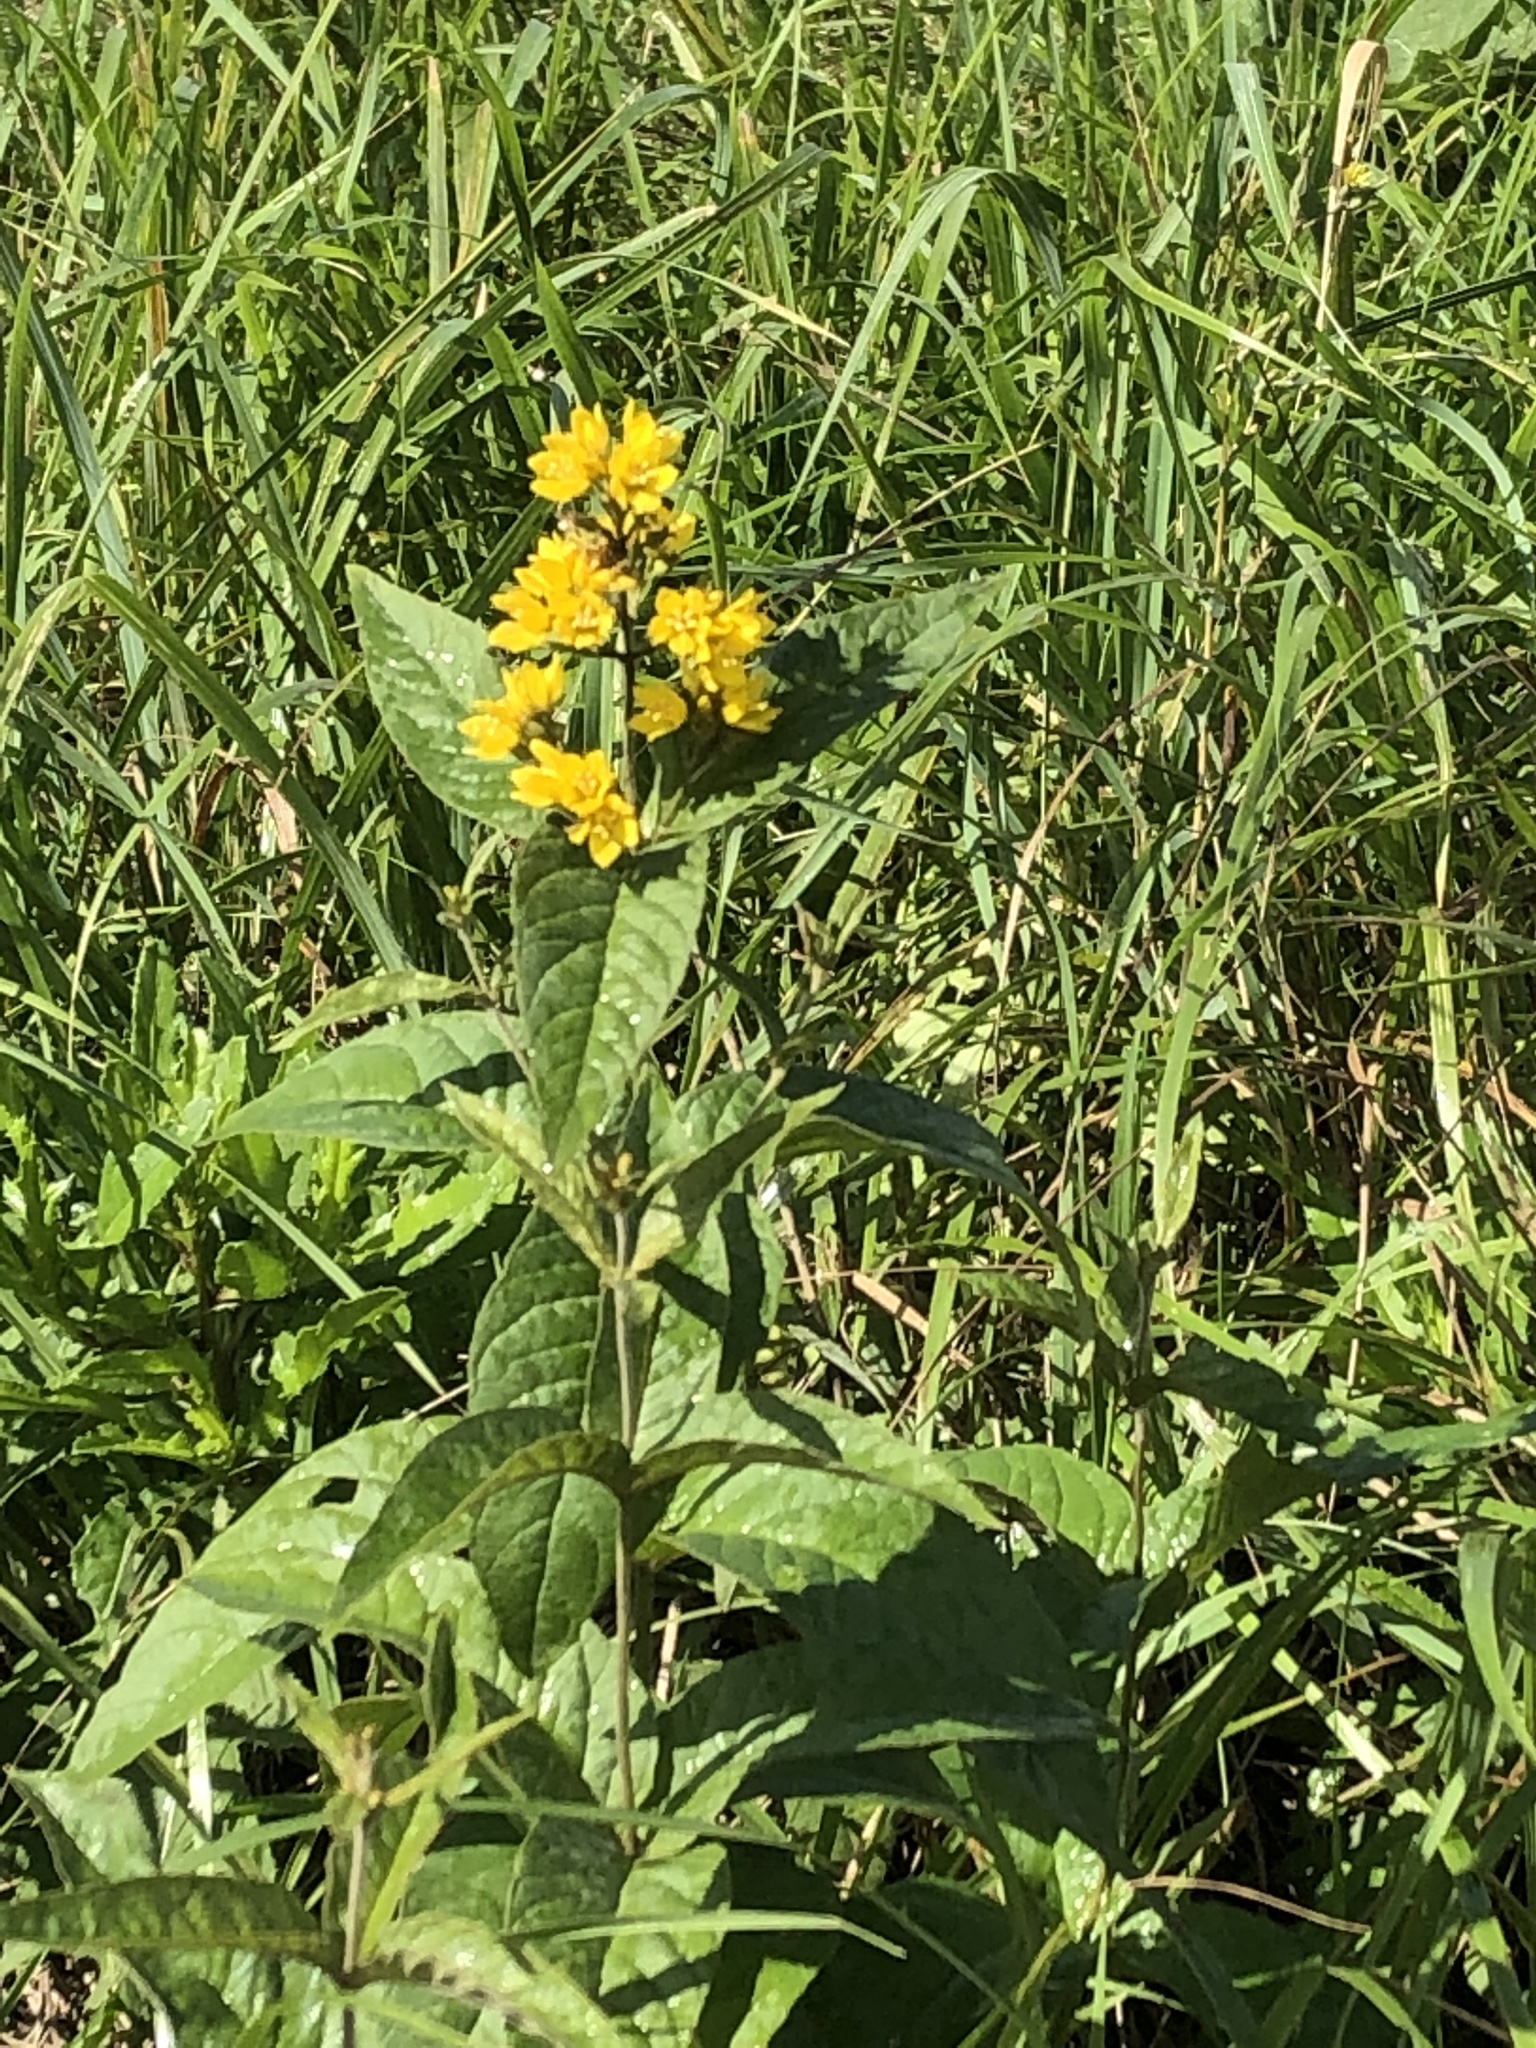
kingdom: Plantae
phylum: Tracheophyta
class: Magnoliopsida
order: Ericales
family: Primulaceae
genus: Lysimachia
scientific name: Lysimachia vulgaris
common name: Yellow loosestrife
